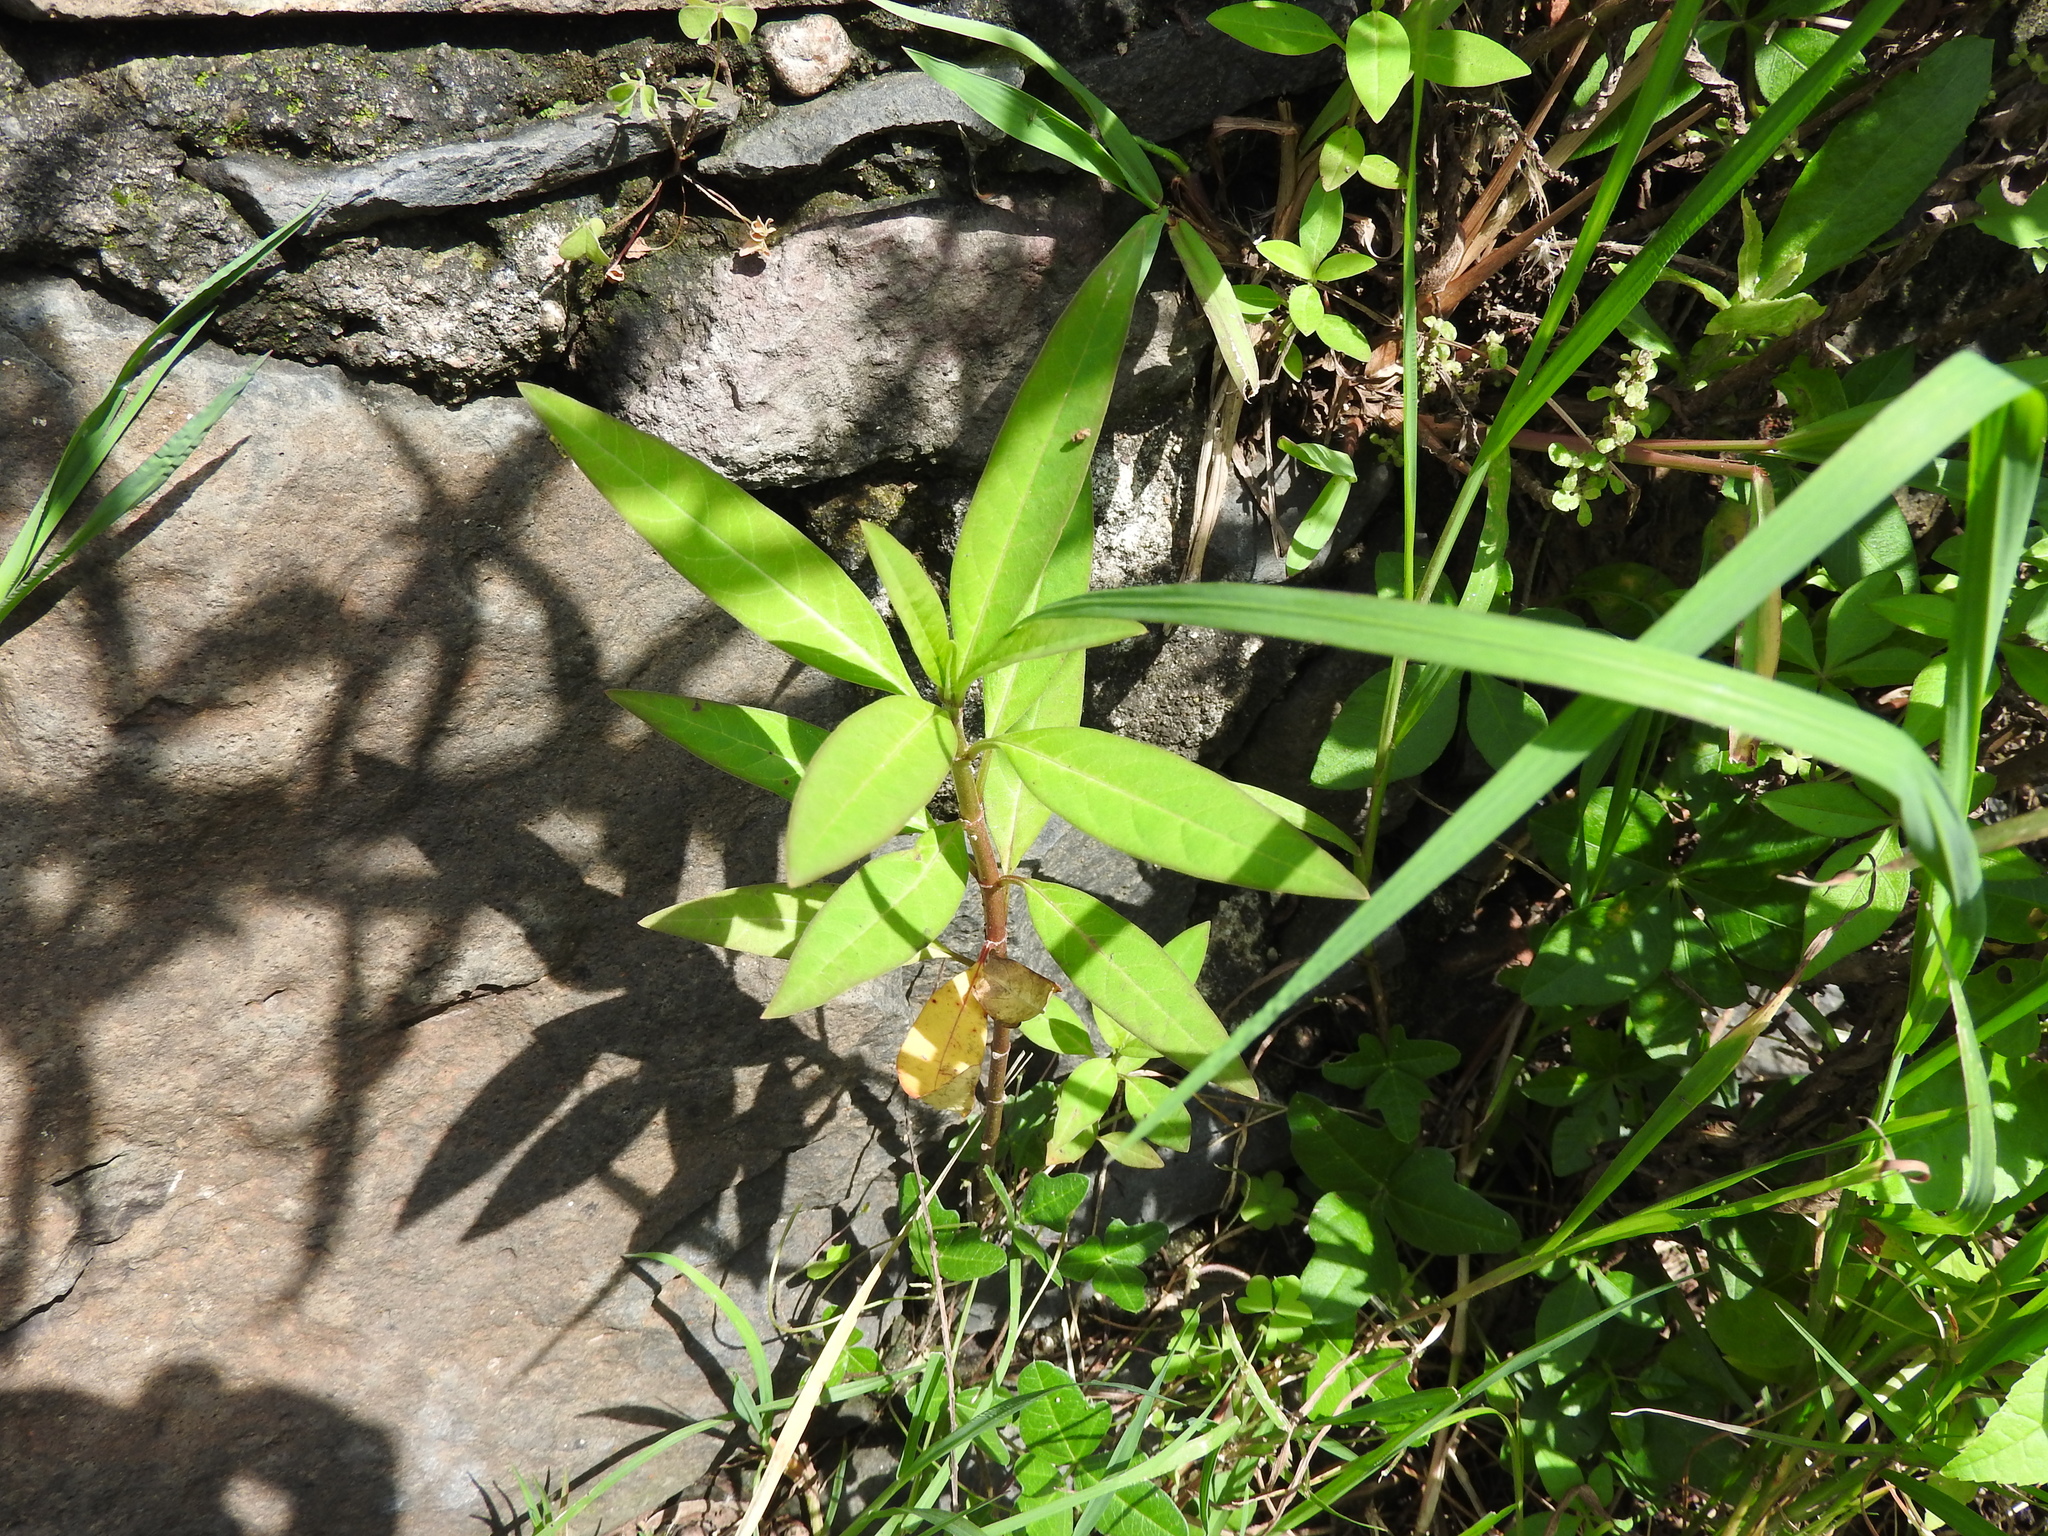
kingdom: Plantae
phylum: Tracheophyta
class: Magnoliopsida
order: Gentianales
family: Apocynaceae
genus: Asclepias
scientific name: Asclepias curassavica
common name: Bloodflower
